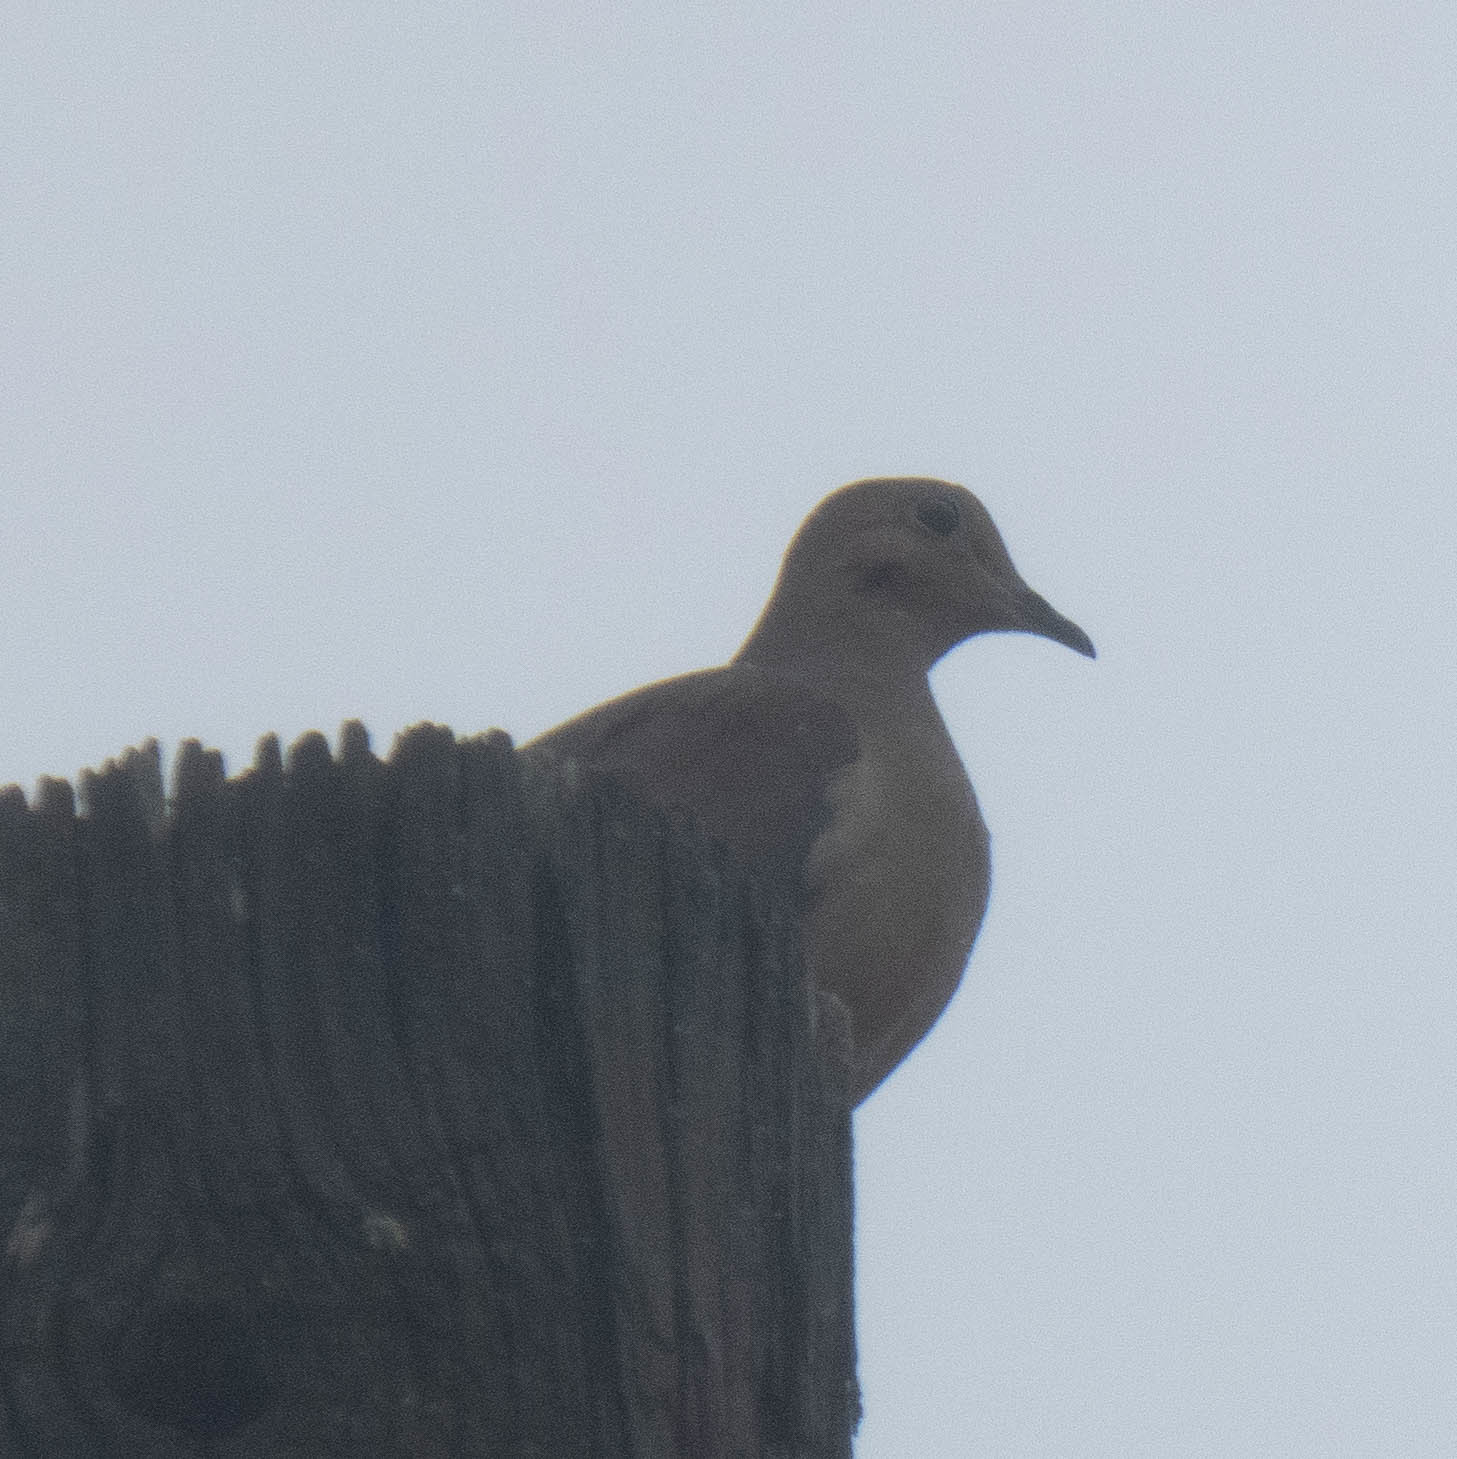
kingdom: Animalia
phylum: Chordata
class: Aves
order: Columbiformes
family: Columbidae
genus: Zenaida
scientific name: Zenaida macroura
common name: Mourning dove
